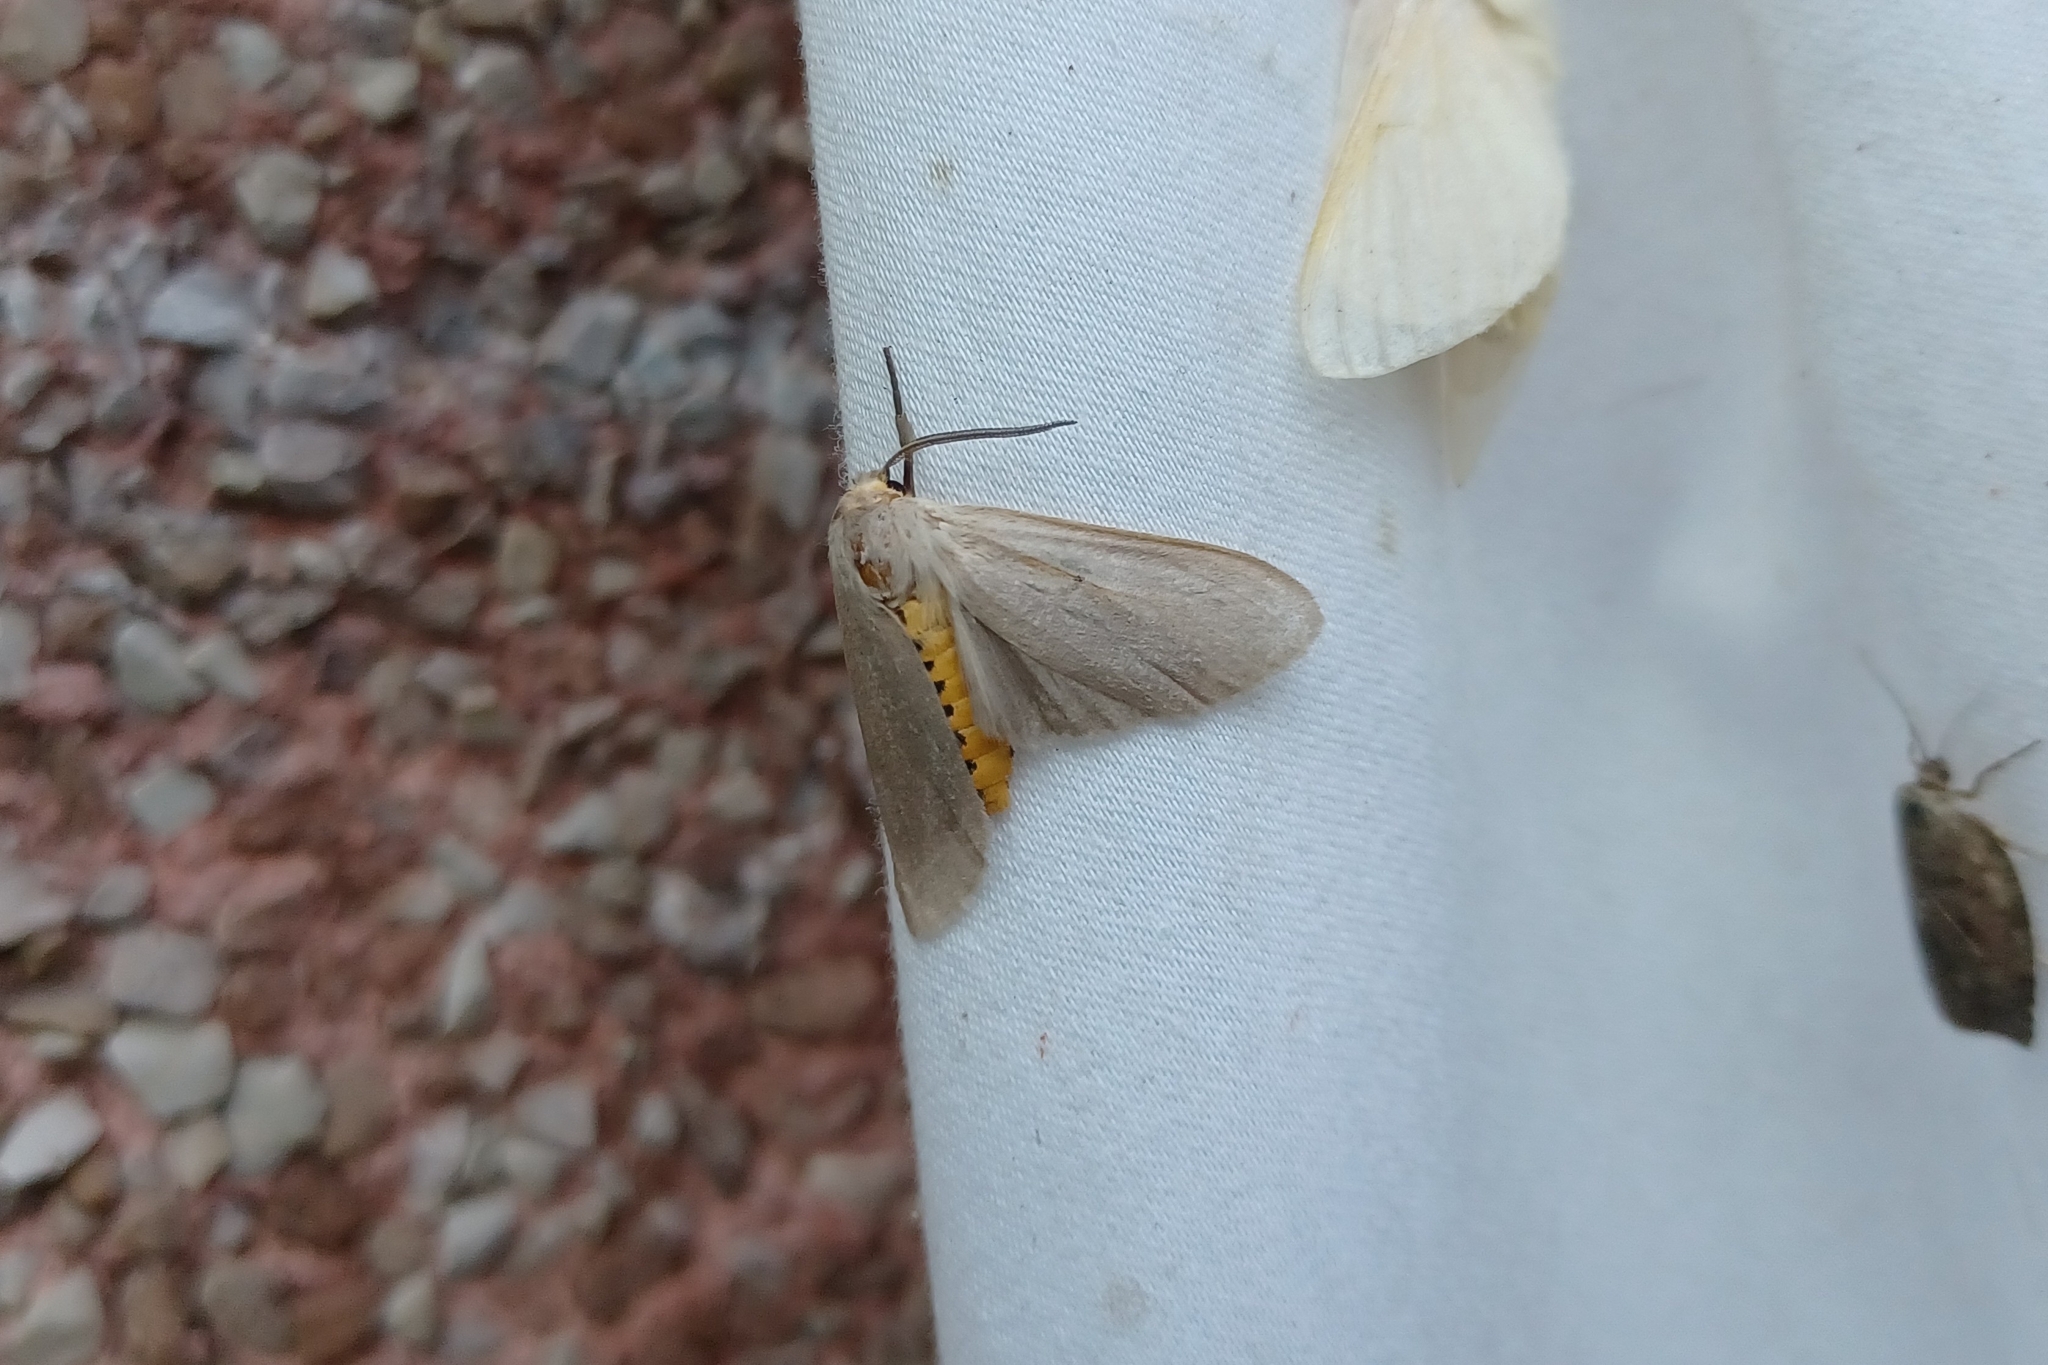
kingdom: Animalia
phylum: Arthropoda
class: Insecta
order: Lepidoptera
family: Erebidae
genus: Euchaetes
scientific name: Euchaetes egle
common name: Milkweed tussock moth
